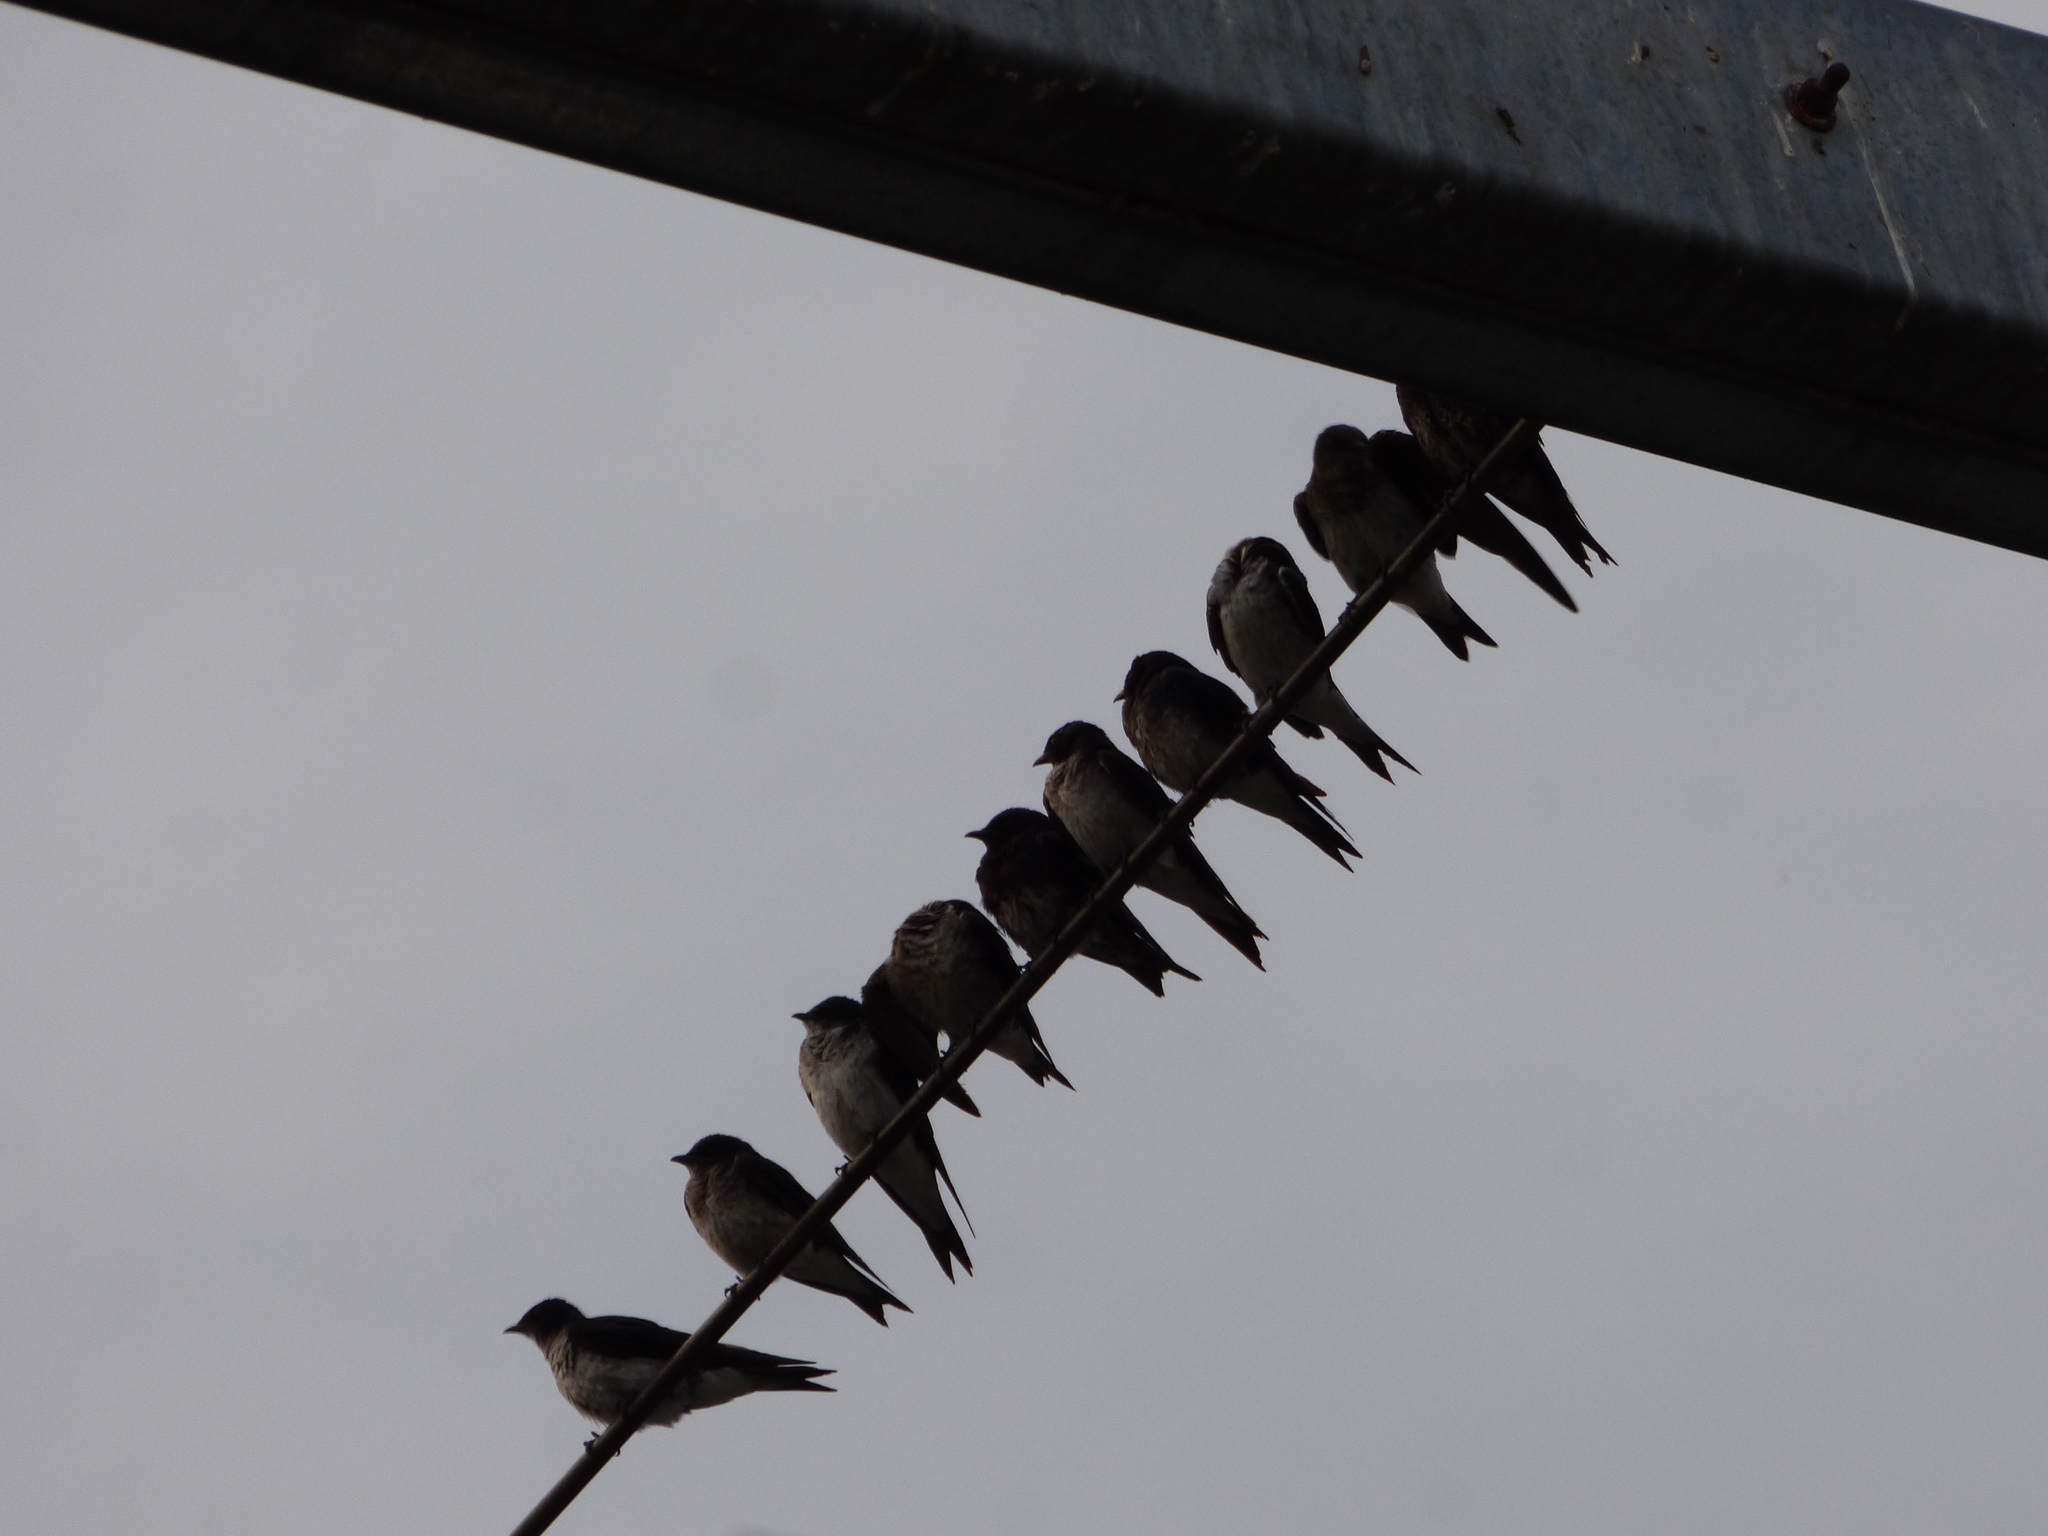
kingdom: Animalia
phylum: Chordata
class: Aves
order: Passeriformes
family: Hirundinidae
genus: Progne
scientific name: Progne chalybea
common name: Grey-breasted martin
